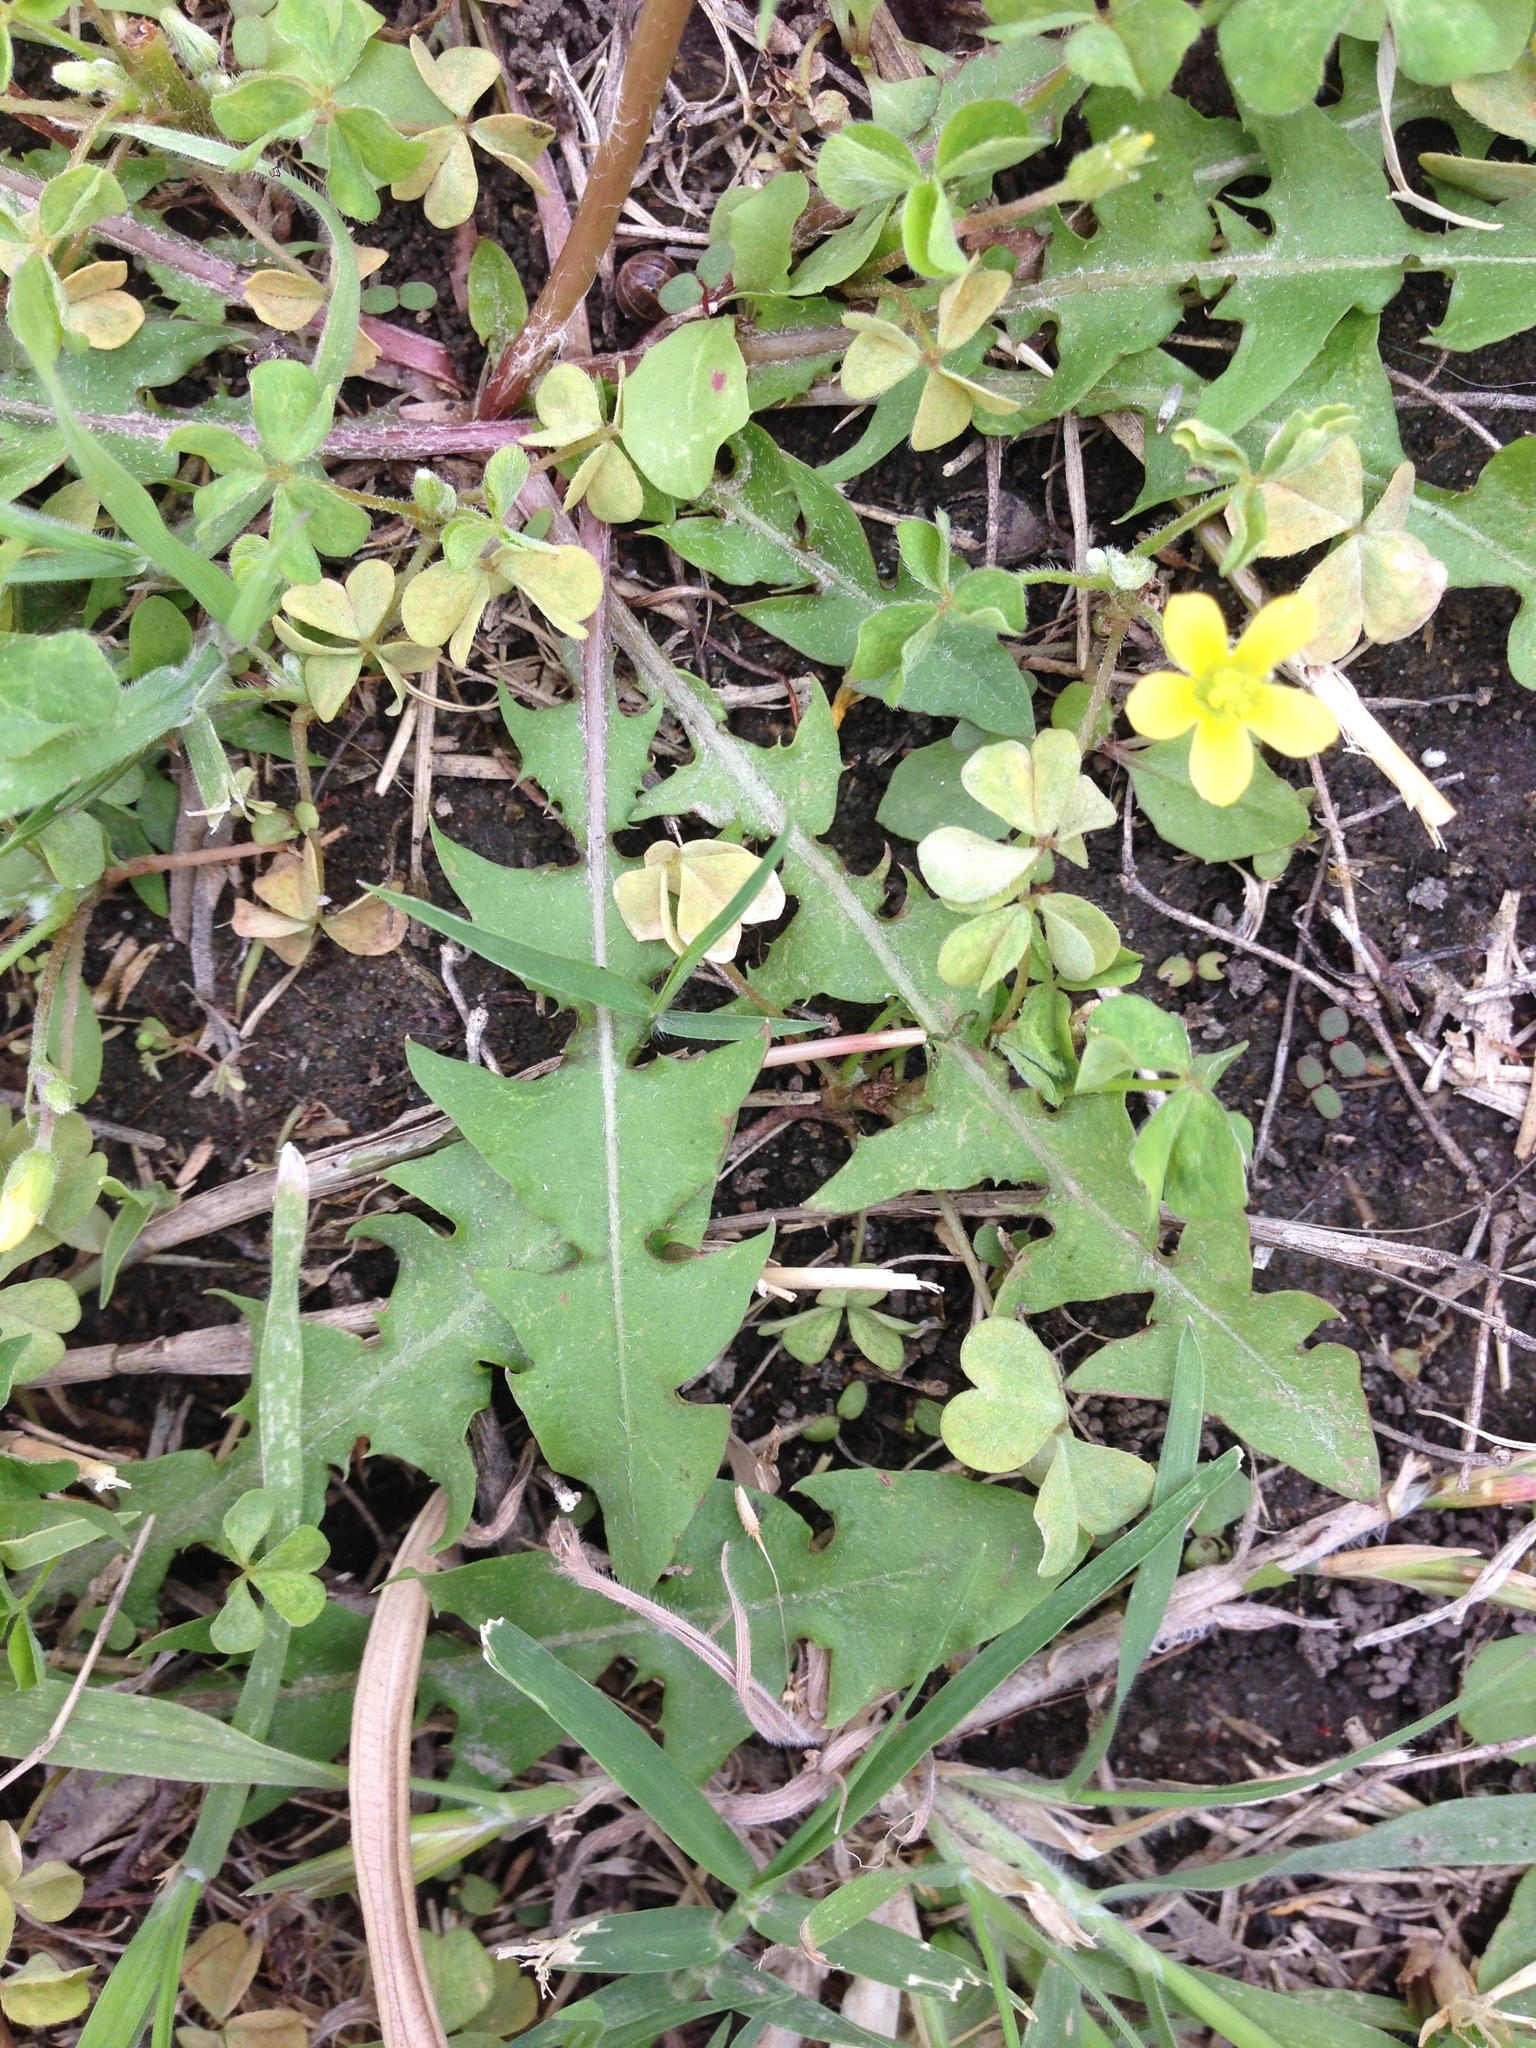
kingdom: Plantae
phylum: Tracheophyta
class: Magnoliopsida
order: Asterales
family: Asteraceae
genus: Taraxacum
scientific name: Taraxacum officinale
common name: Common dandelion
